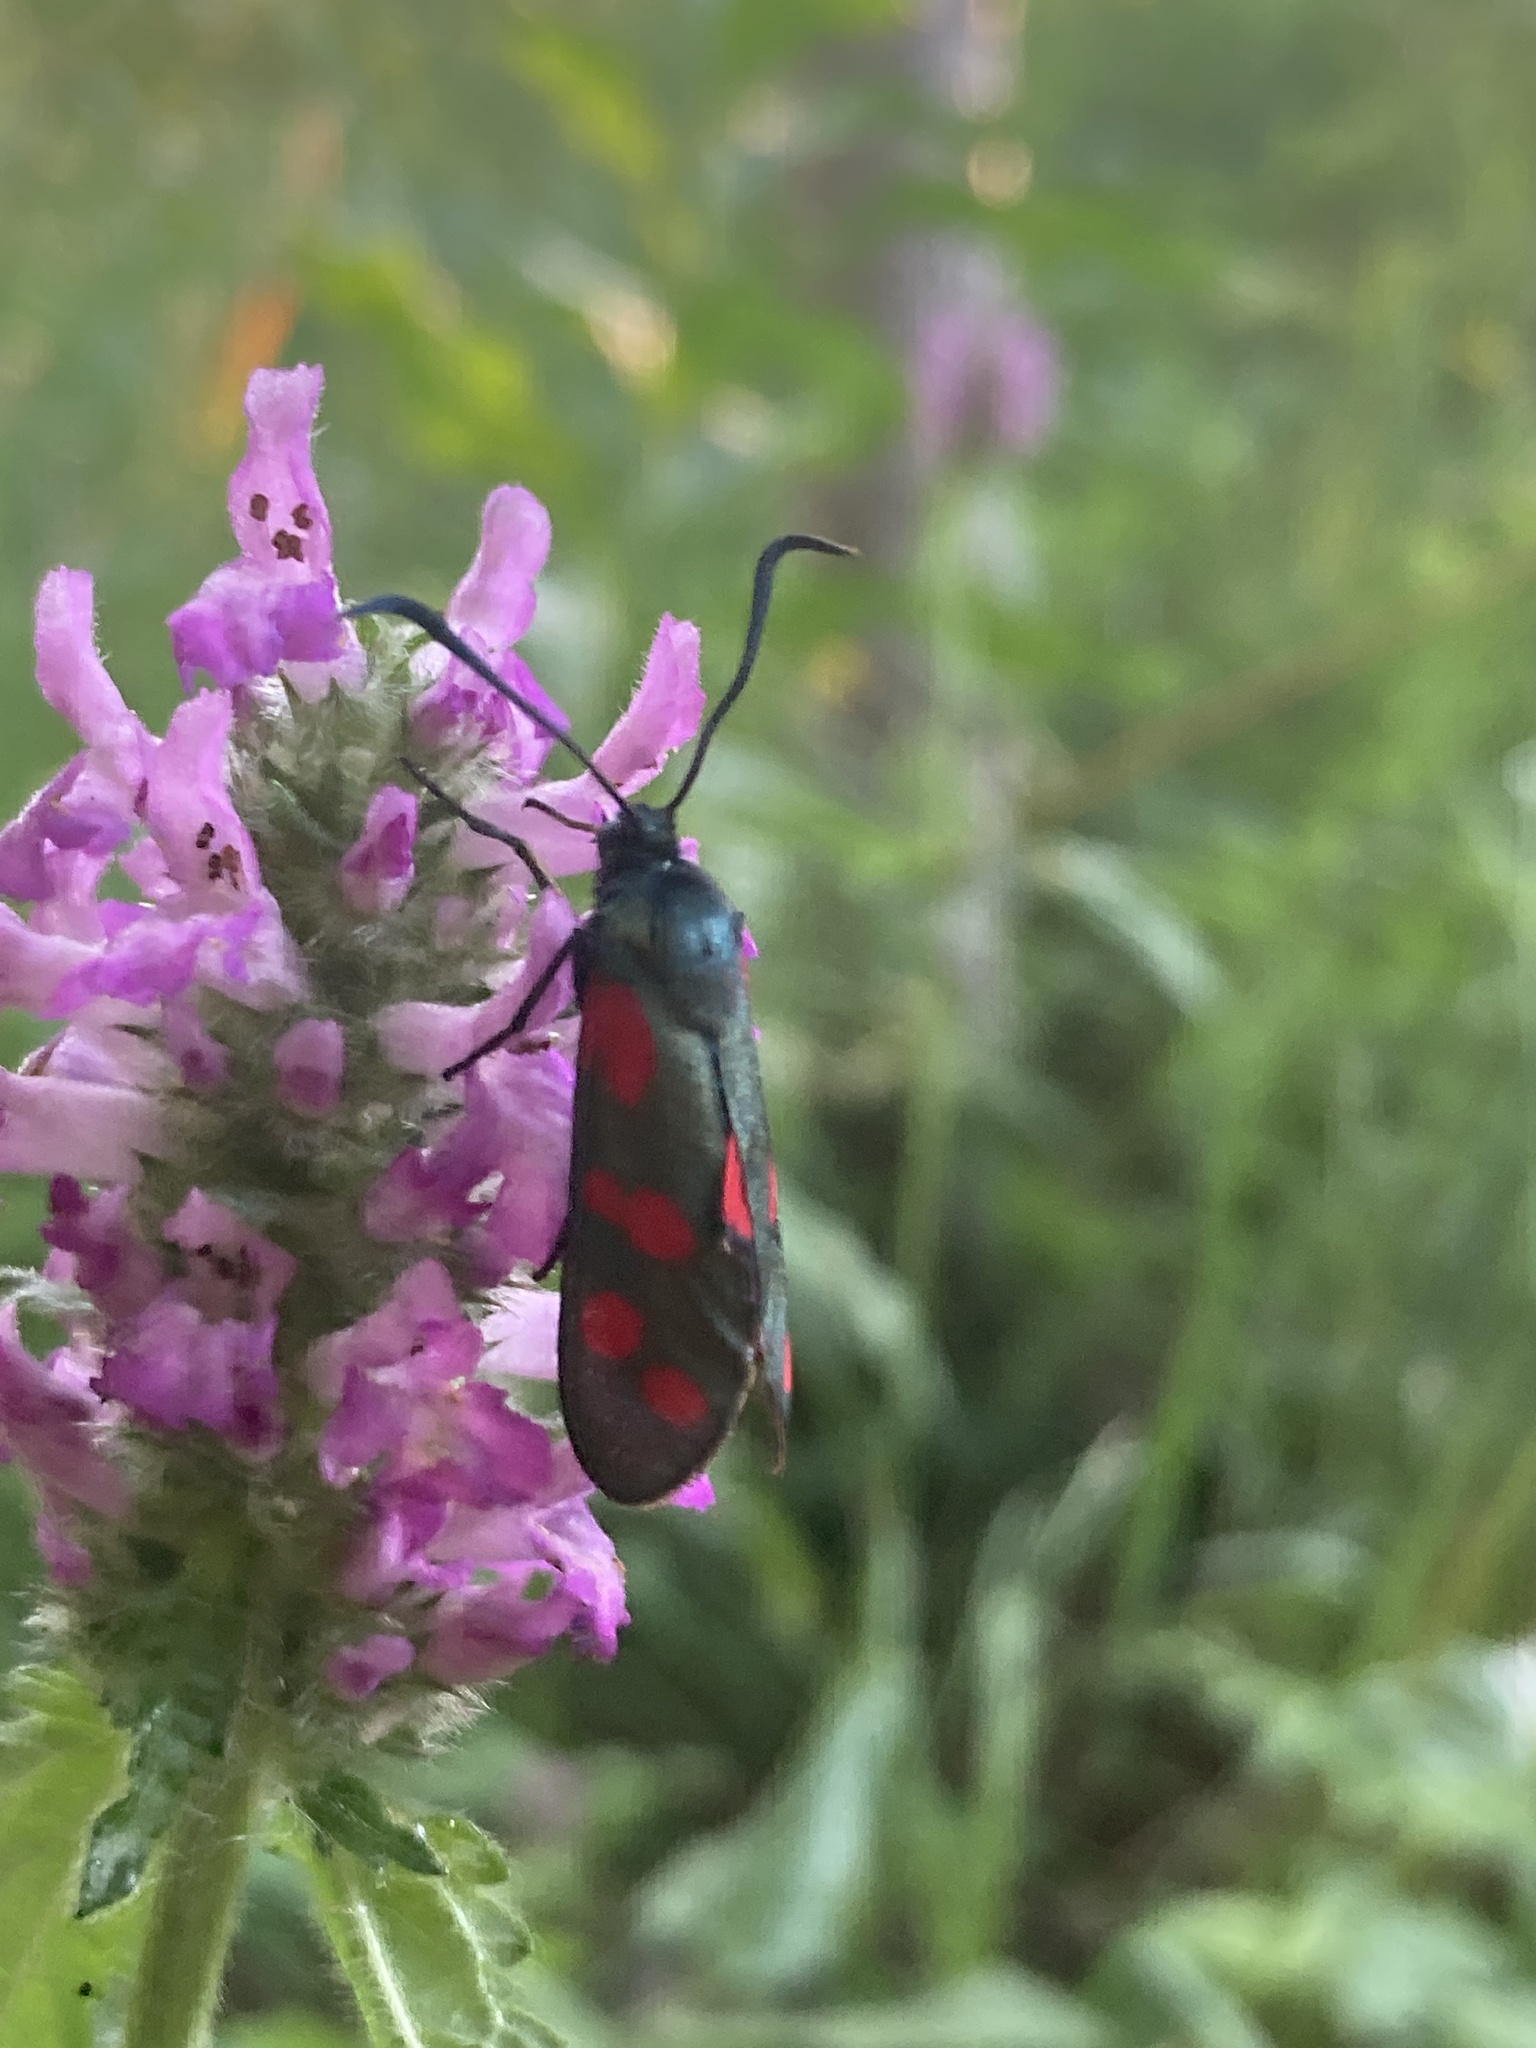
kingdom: Animalia
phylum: Arthropoda
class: Insecta
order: Lepidoptera
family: Zygaenidae
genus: Zygaena
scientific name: Zygaena filipendulae
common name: Six-spot burnet
